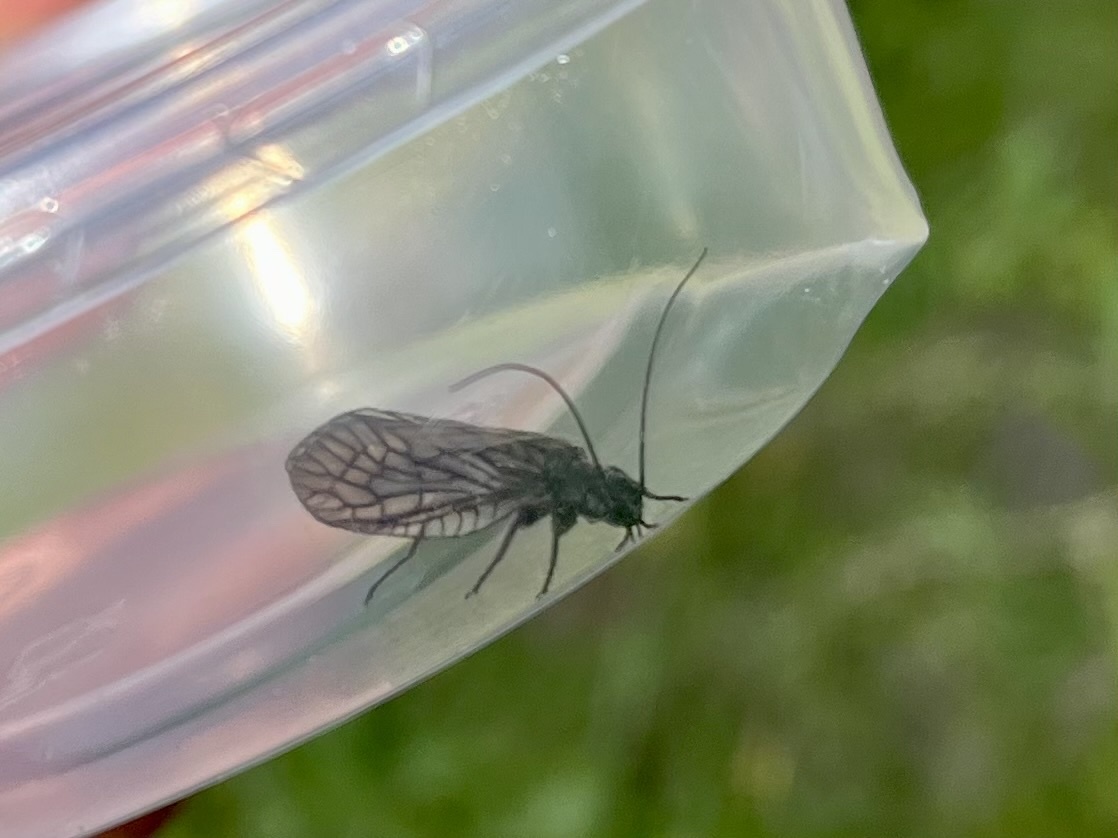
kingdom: Animalia
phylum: Arthropoda
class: Insecta
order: Megaloptera
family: Sialidae
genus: Sialis
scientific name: Sialis
